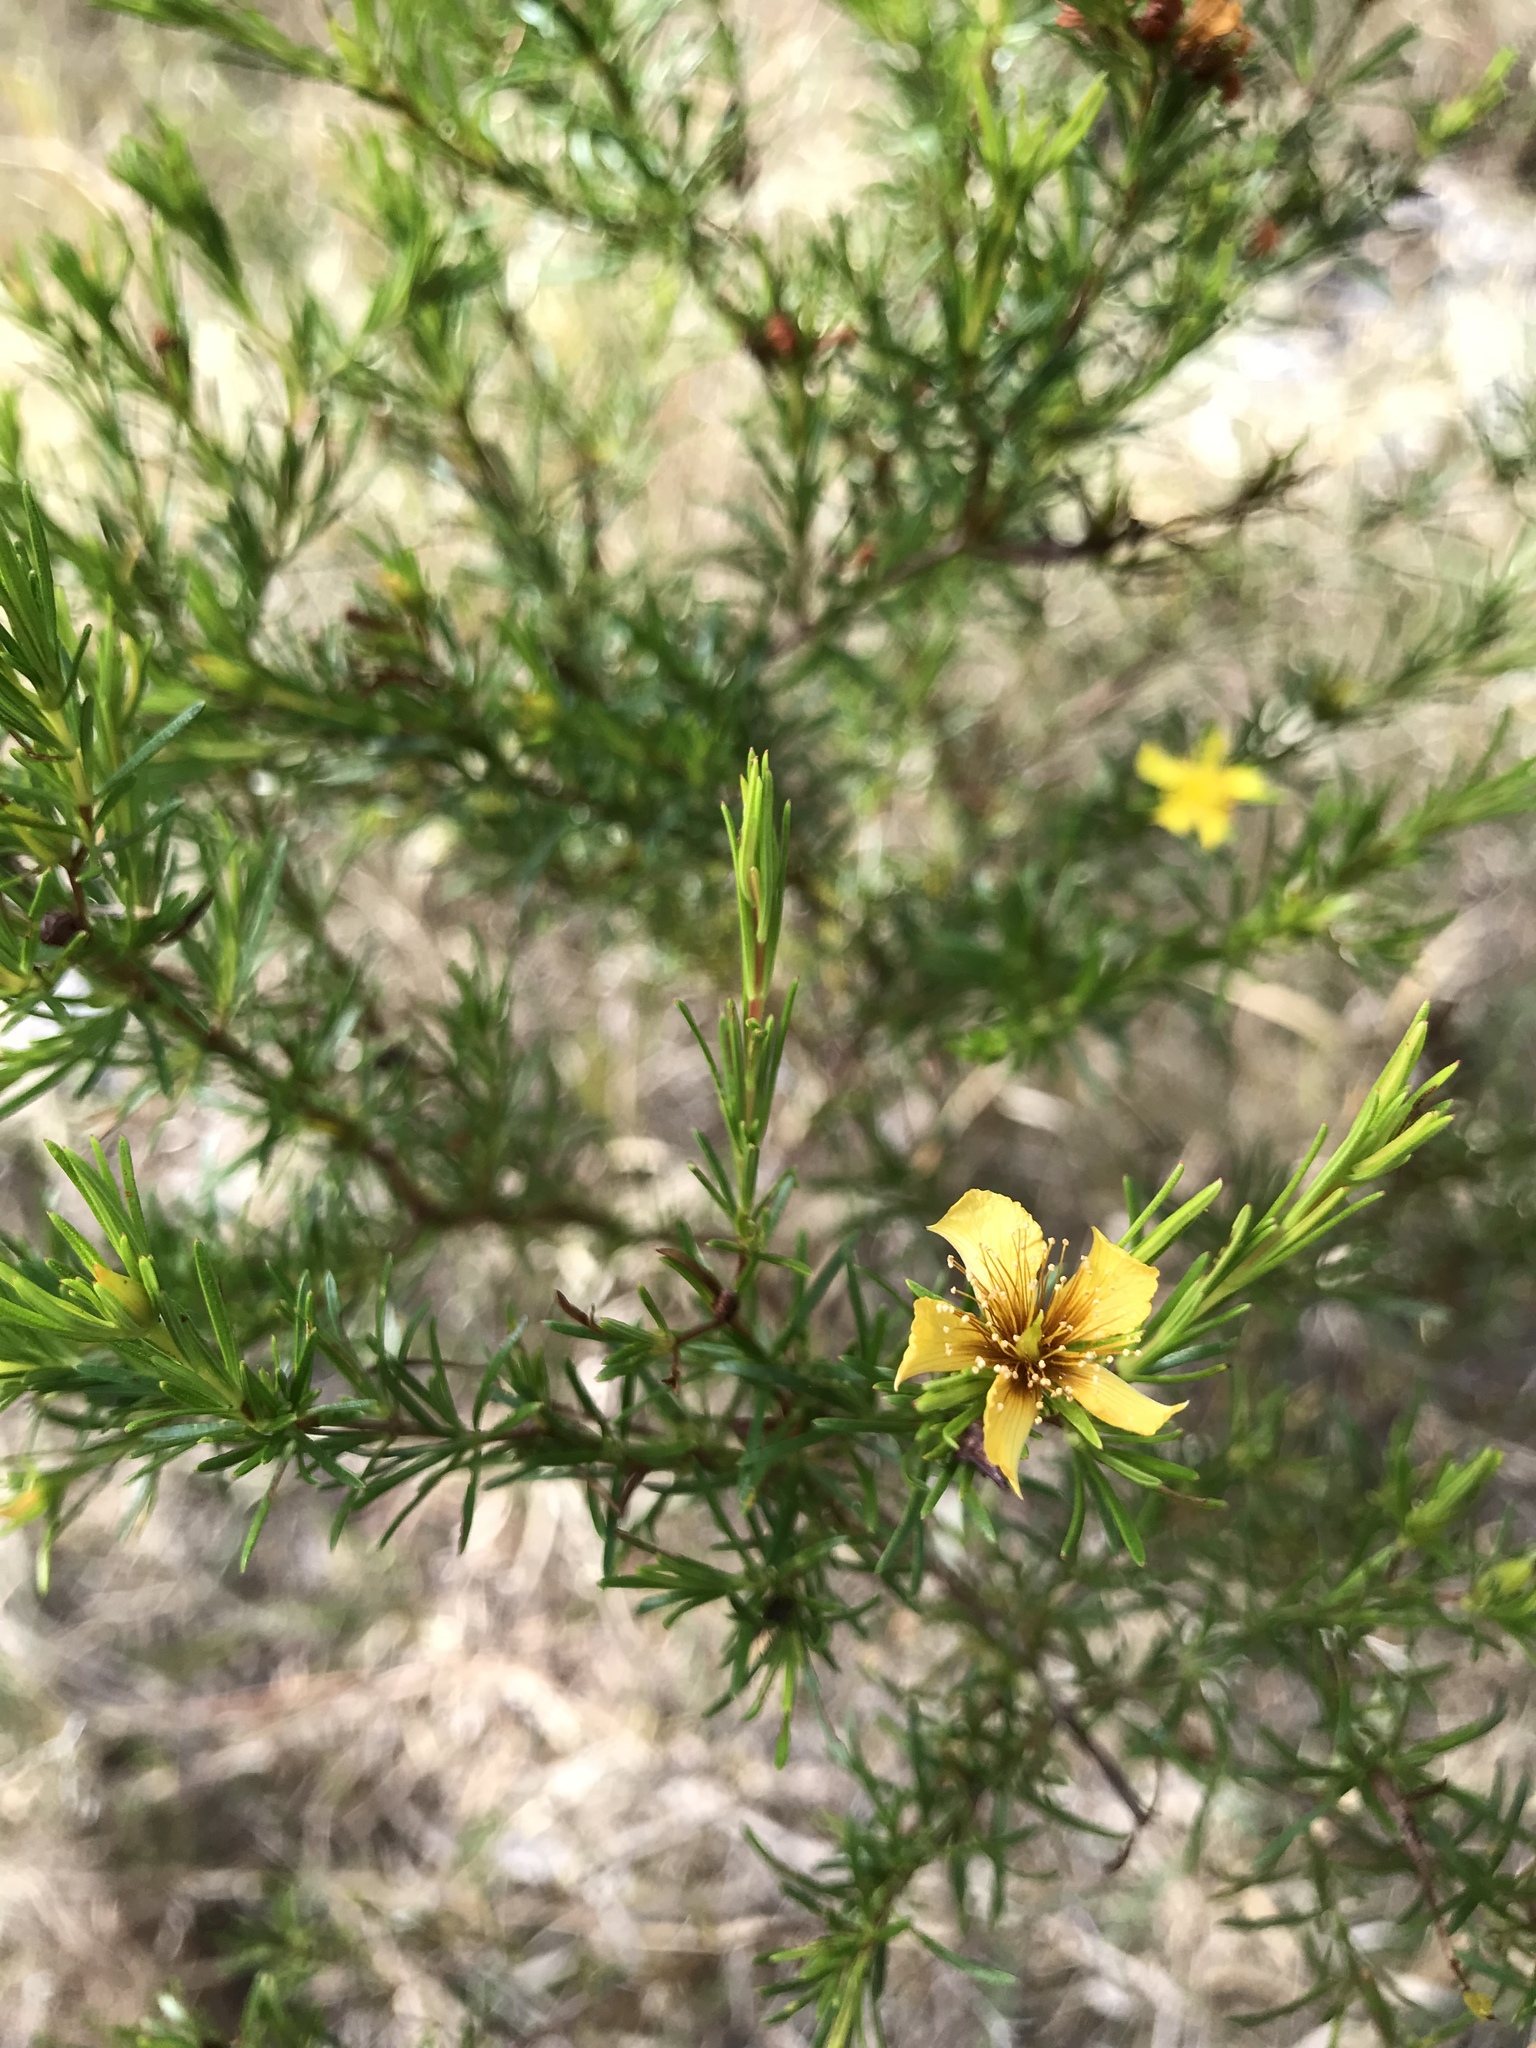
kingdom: Plantae
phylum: Tracheophyta
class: Magnoliopsida
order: Malpighiales
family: Hypericaceae
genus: Hypericum
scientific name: Hypericum fasciculatum
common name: Peelbark st. john's wort
